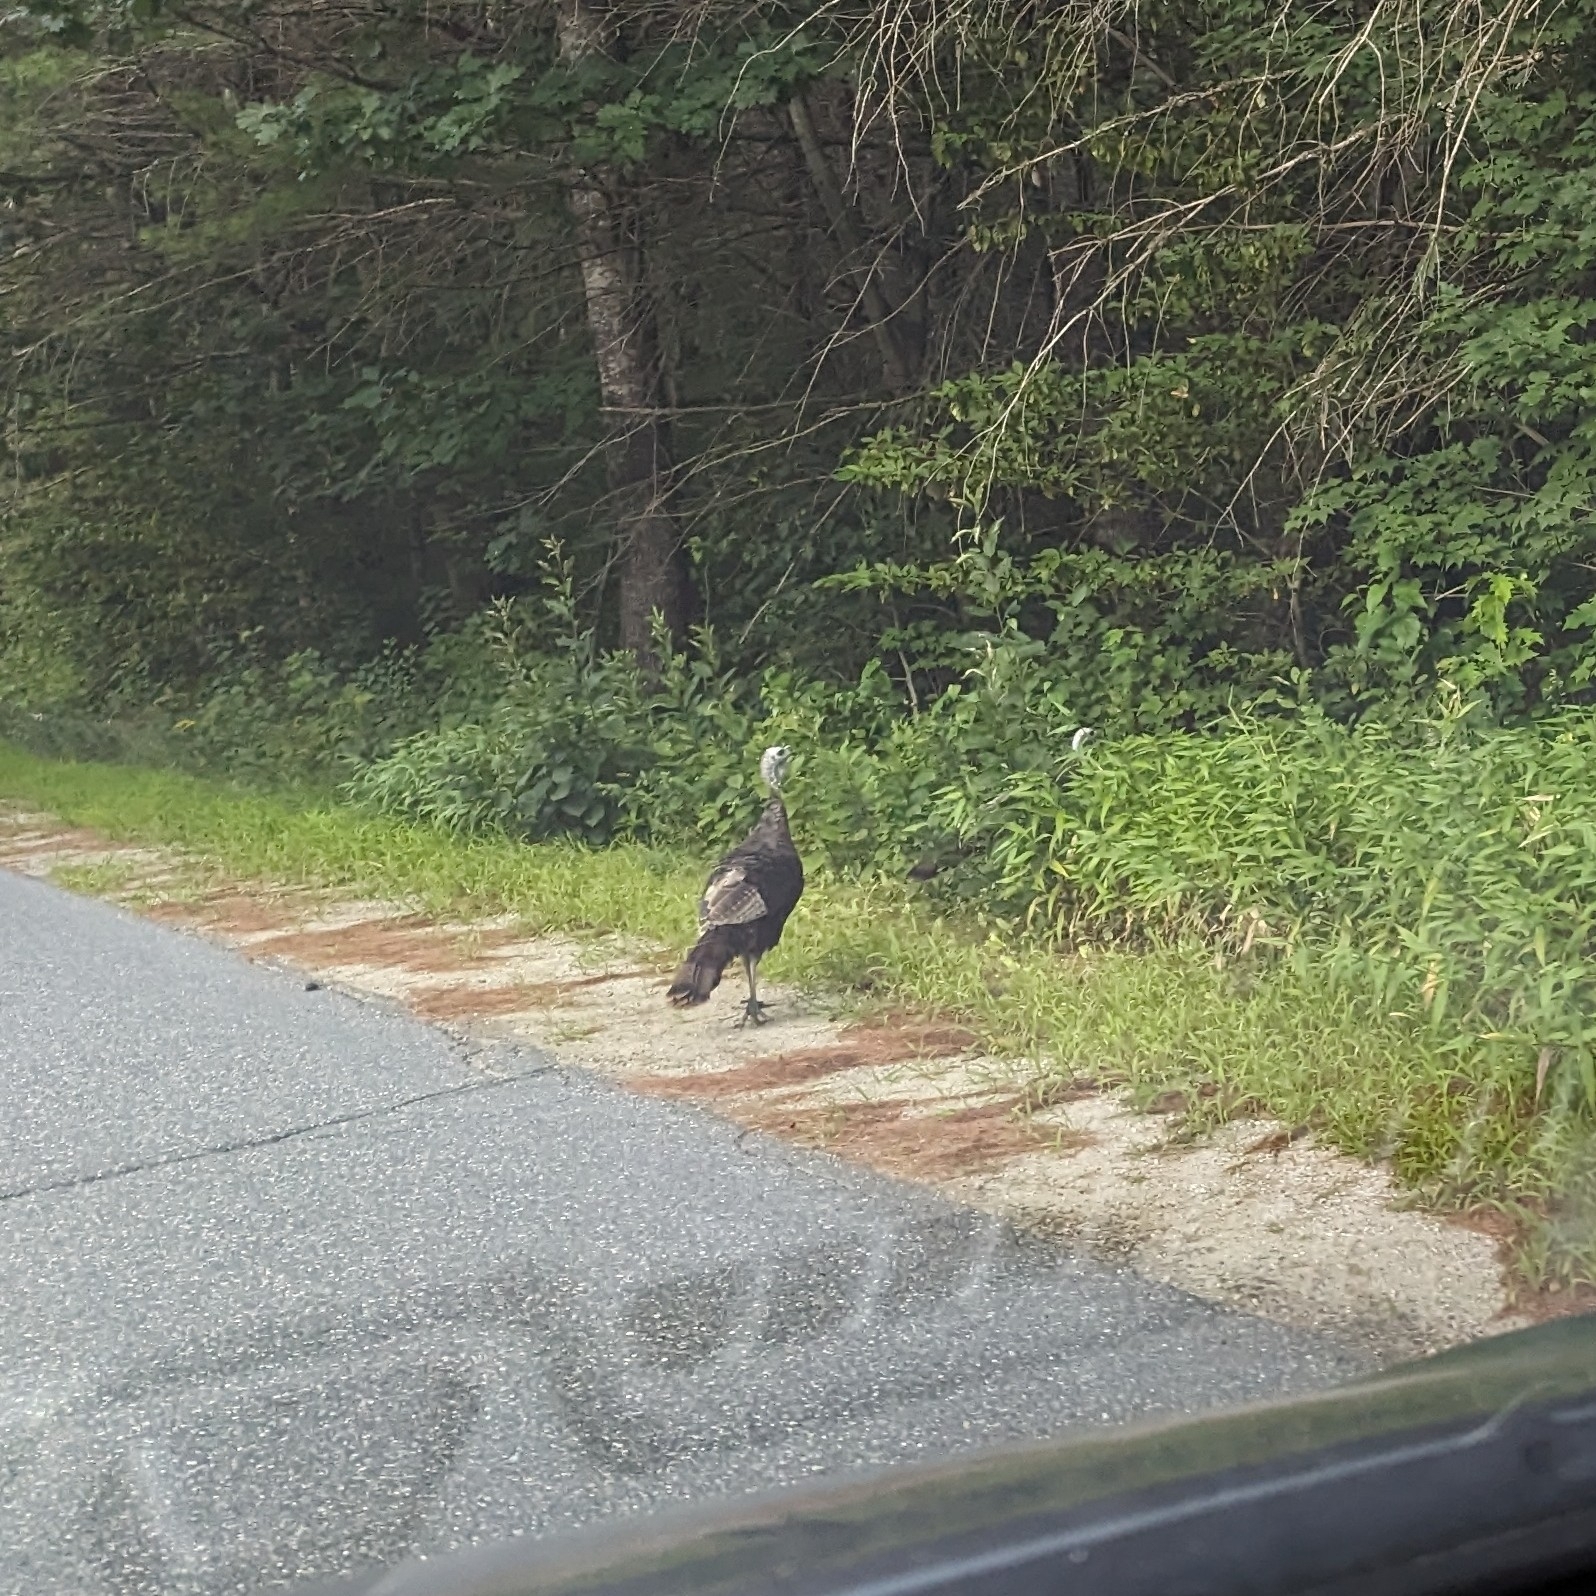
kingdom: Animalia
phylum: Chordata
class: Aves
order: Galliformes
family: Phasianidae
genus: Meleagris
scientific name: Meleagris gallopavo
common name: Wild turkey
